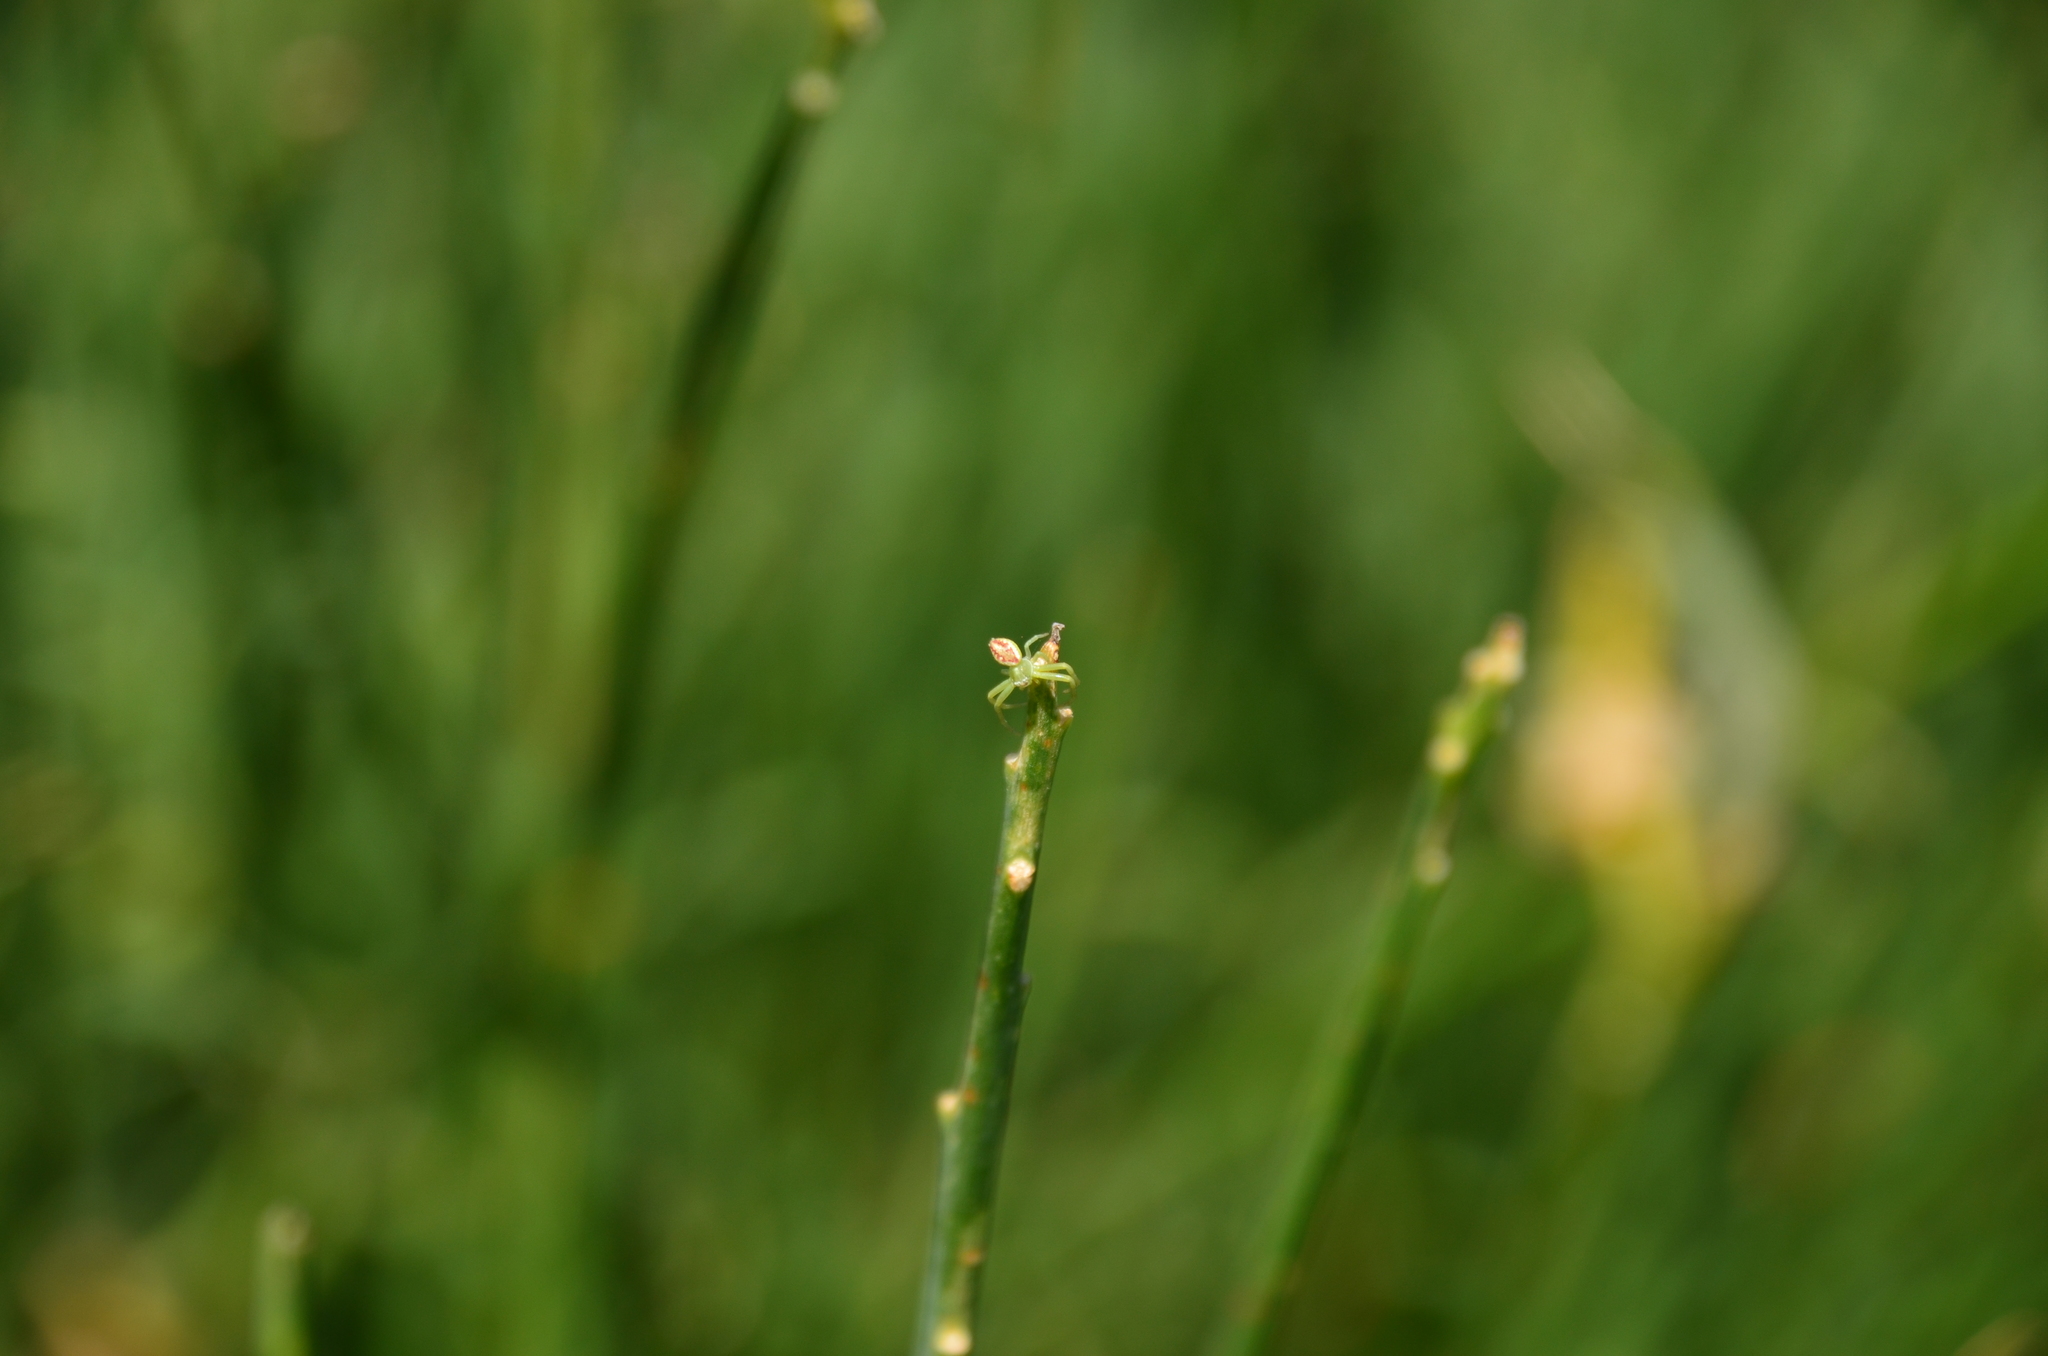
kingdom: Animalia
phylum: Arthropoda
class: Arachnida
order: Araneae
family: Thomisidae
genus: Misumenops
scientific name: Misumenops
